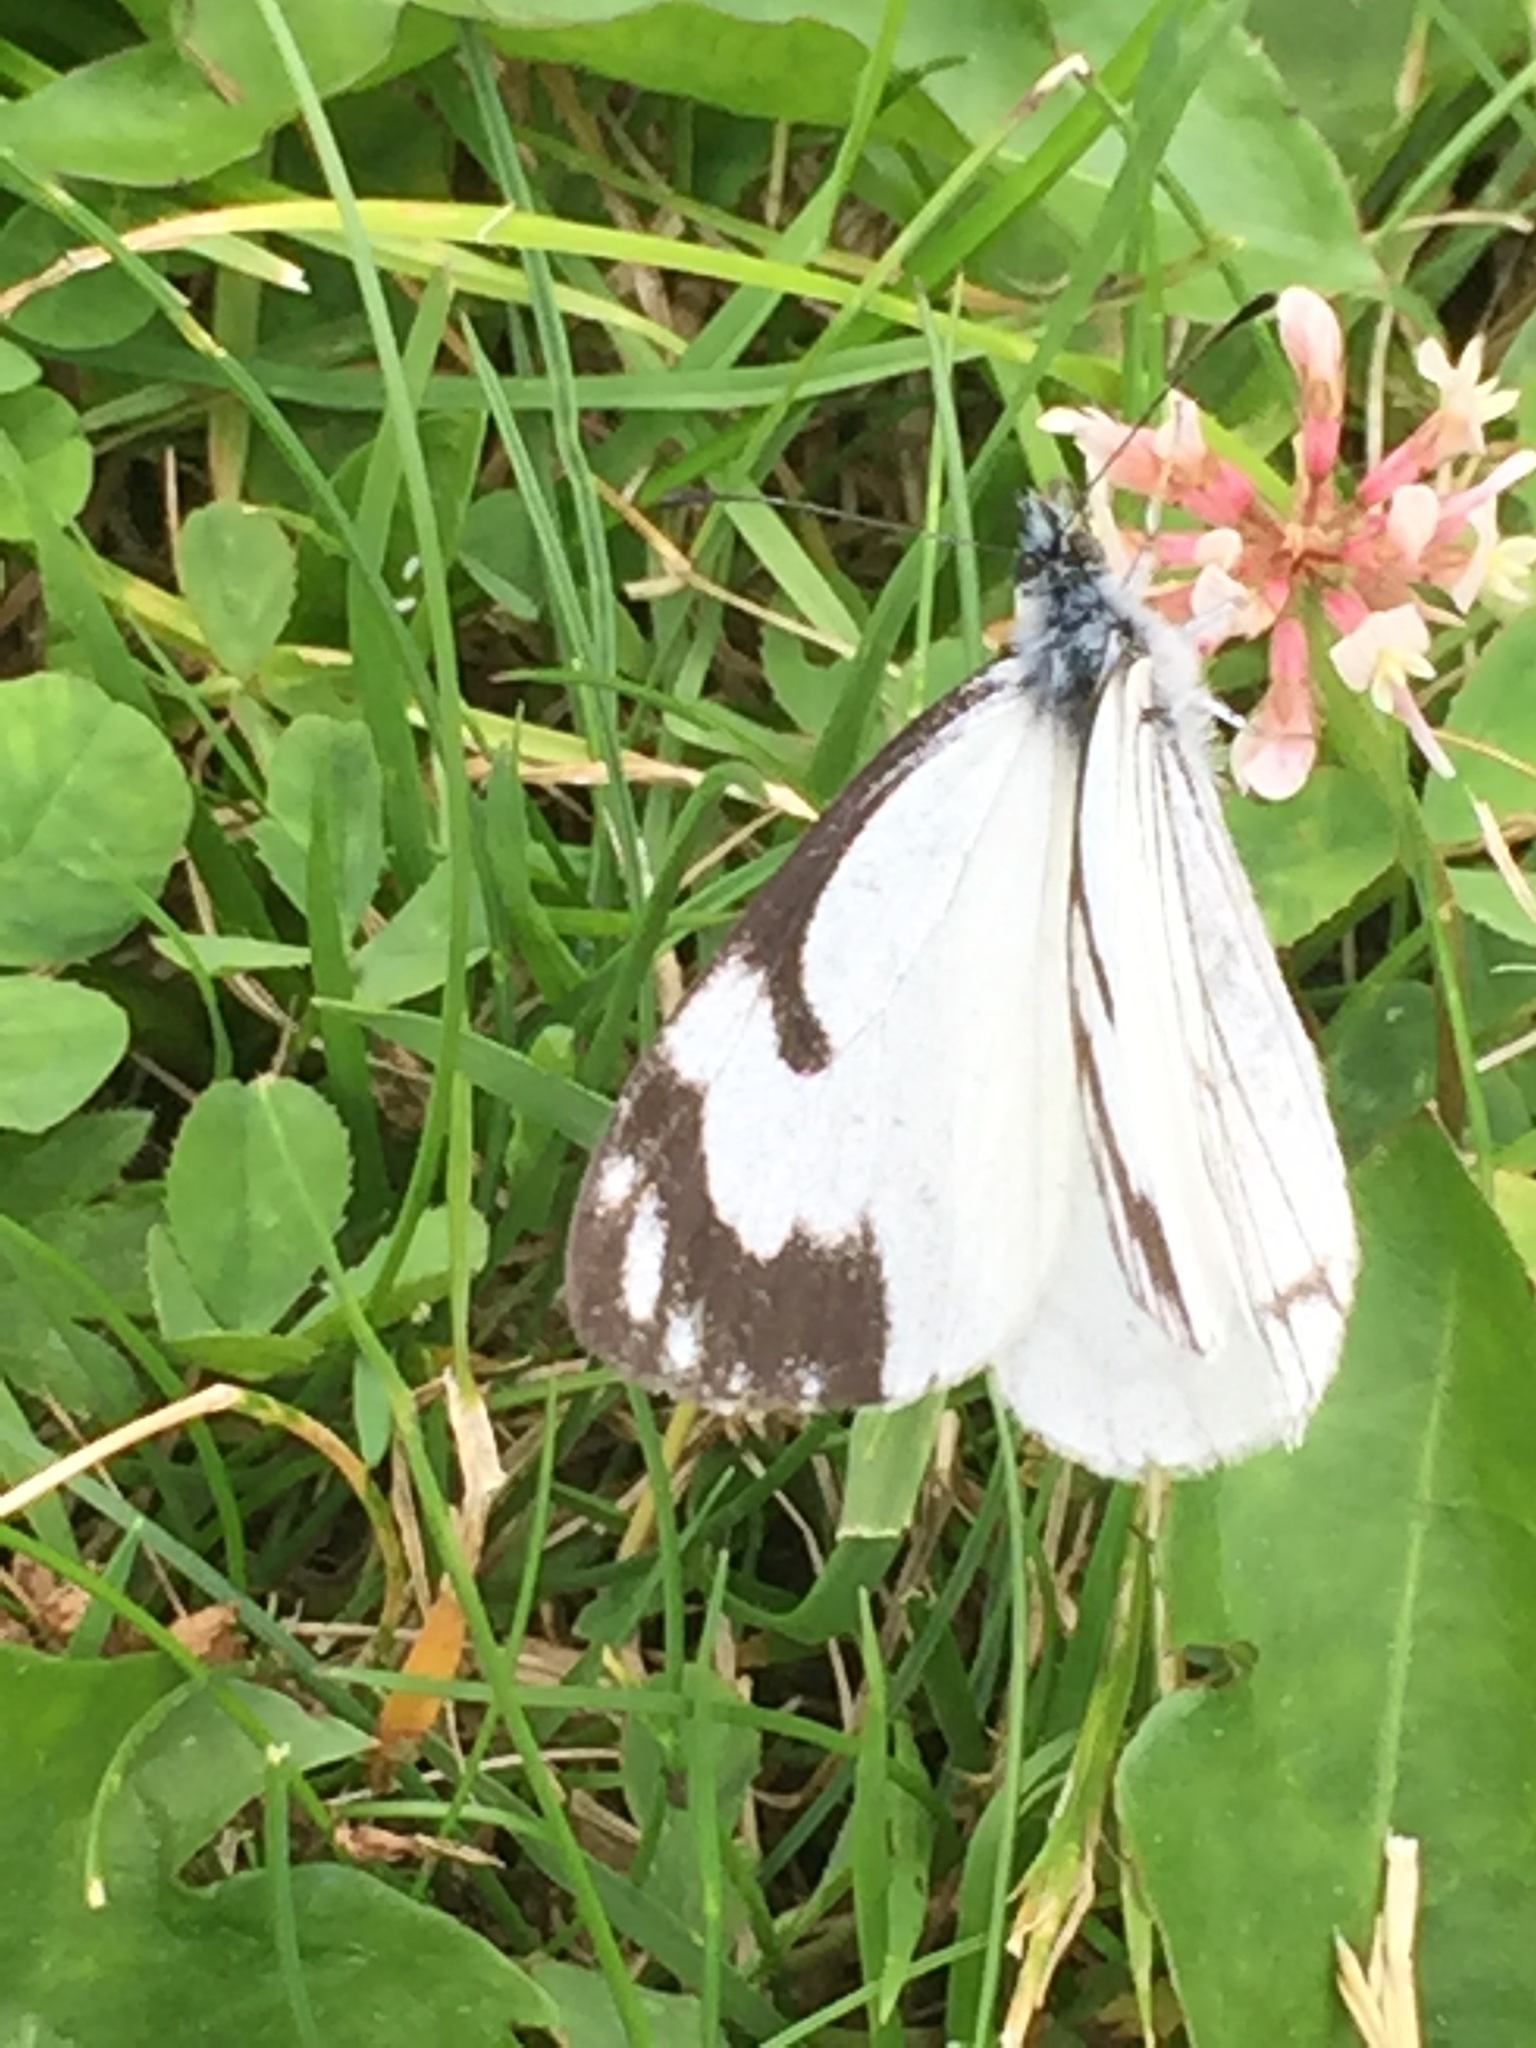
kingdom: Animalia
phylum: Arthropoda
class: Insecta
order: Lepidoptera
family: Pieridae
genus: Neophasia
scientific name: Neophasia menapia
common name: Pine white
